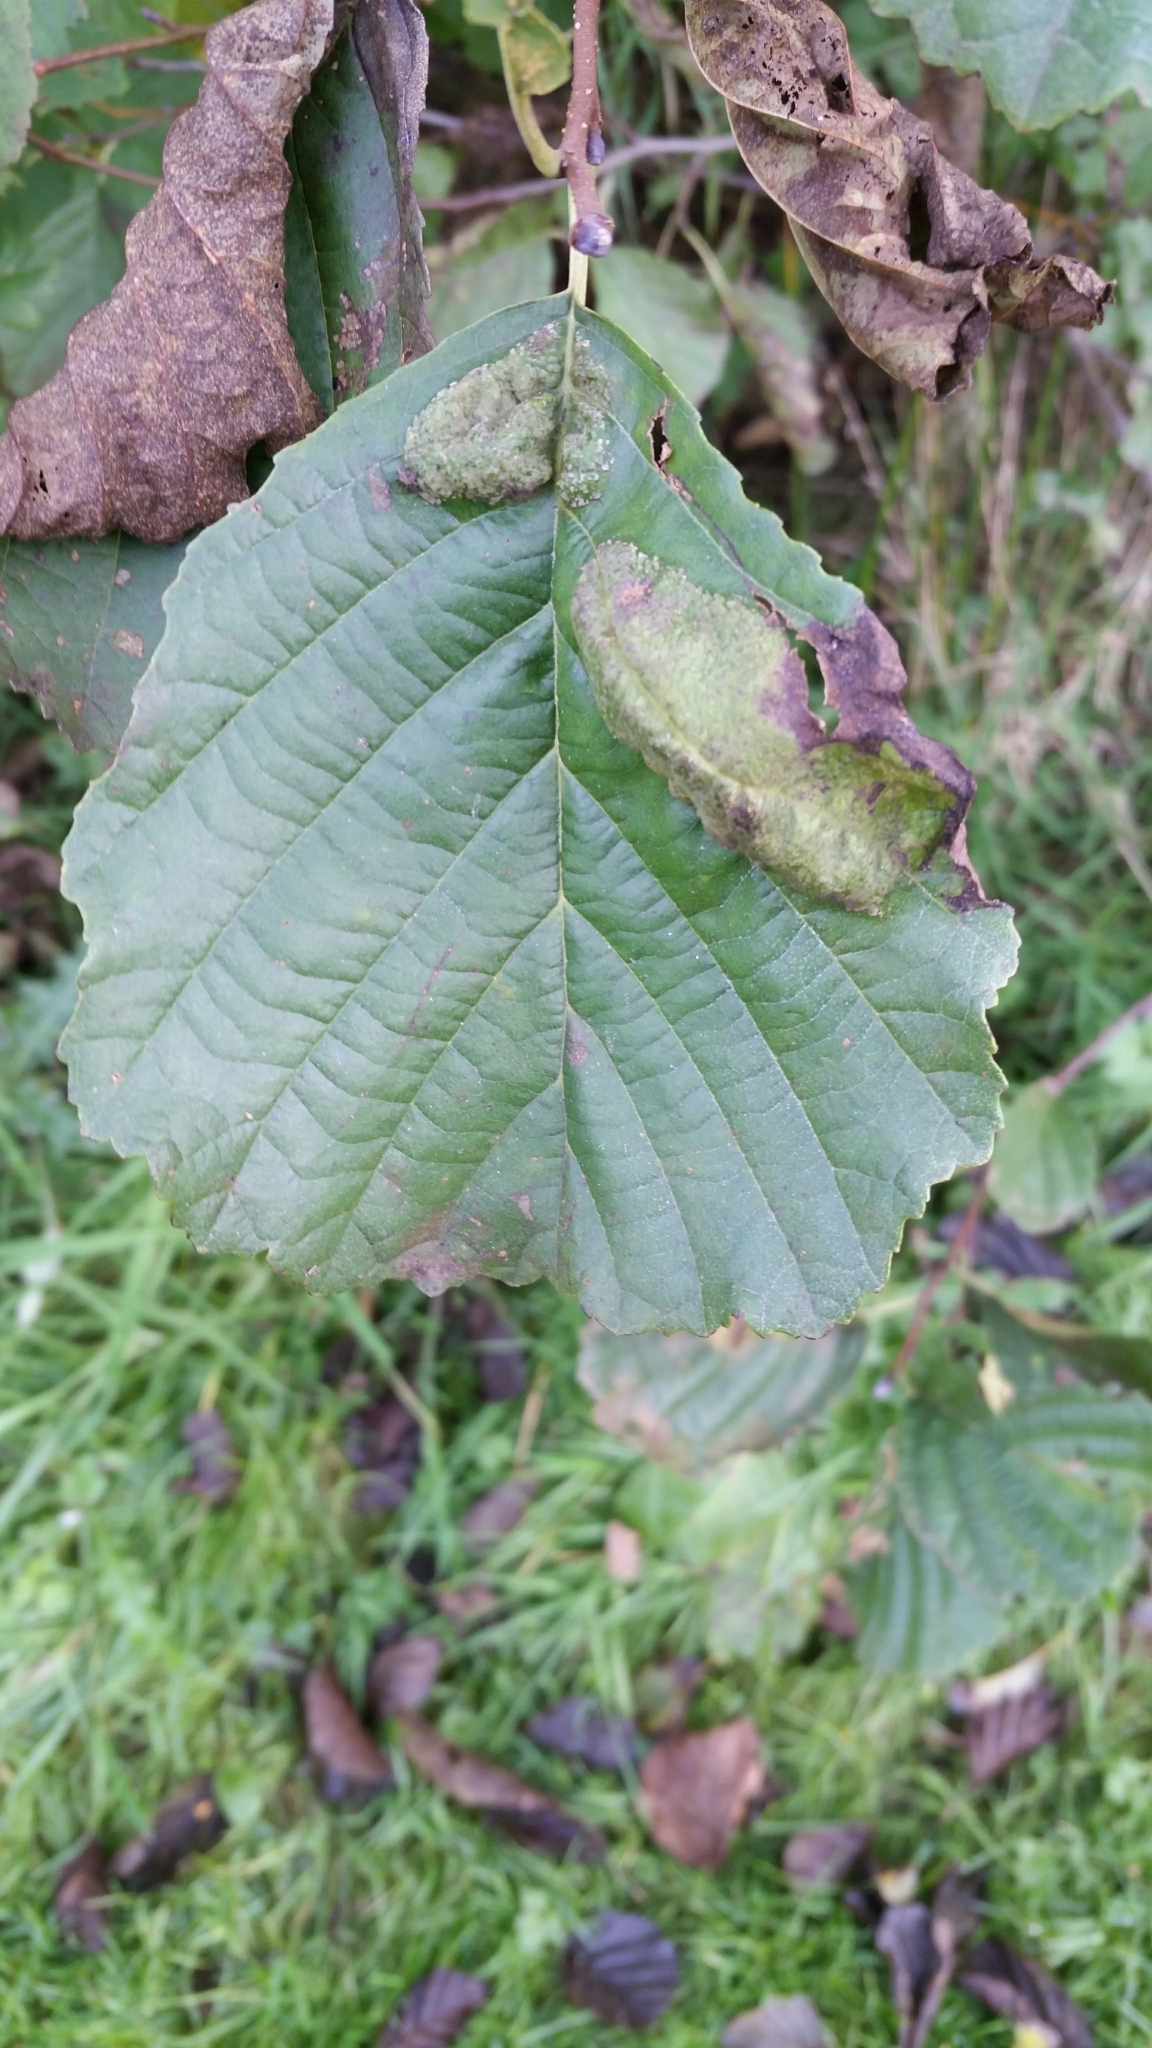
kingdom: Fungi
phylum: Ascomycota
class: Taphrinomycetes
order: Taphrinales
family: Taphrinaceae
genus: Taphrina
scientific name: Taphrina tosquinetii
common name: Alder wrinkle
